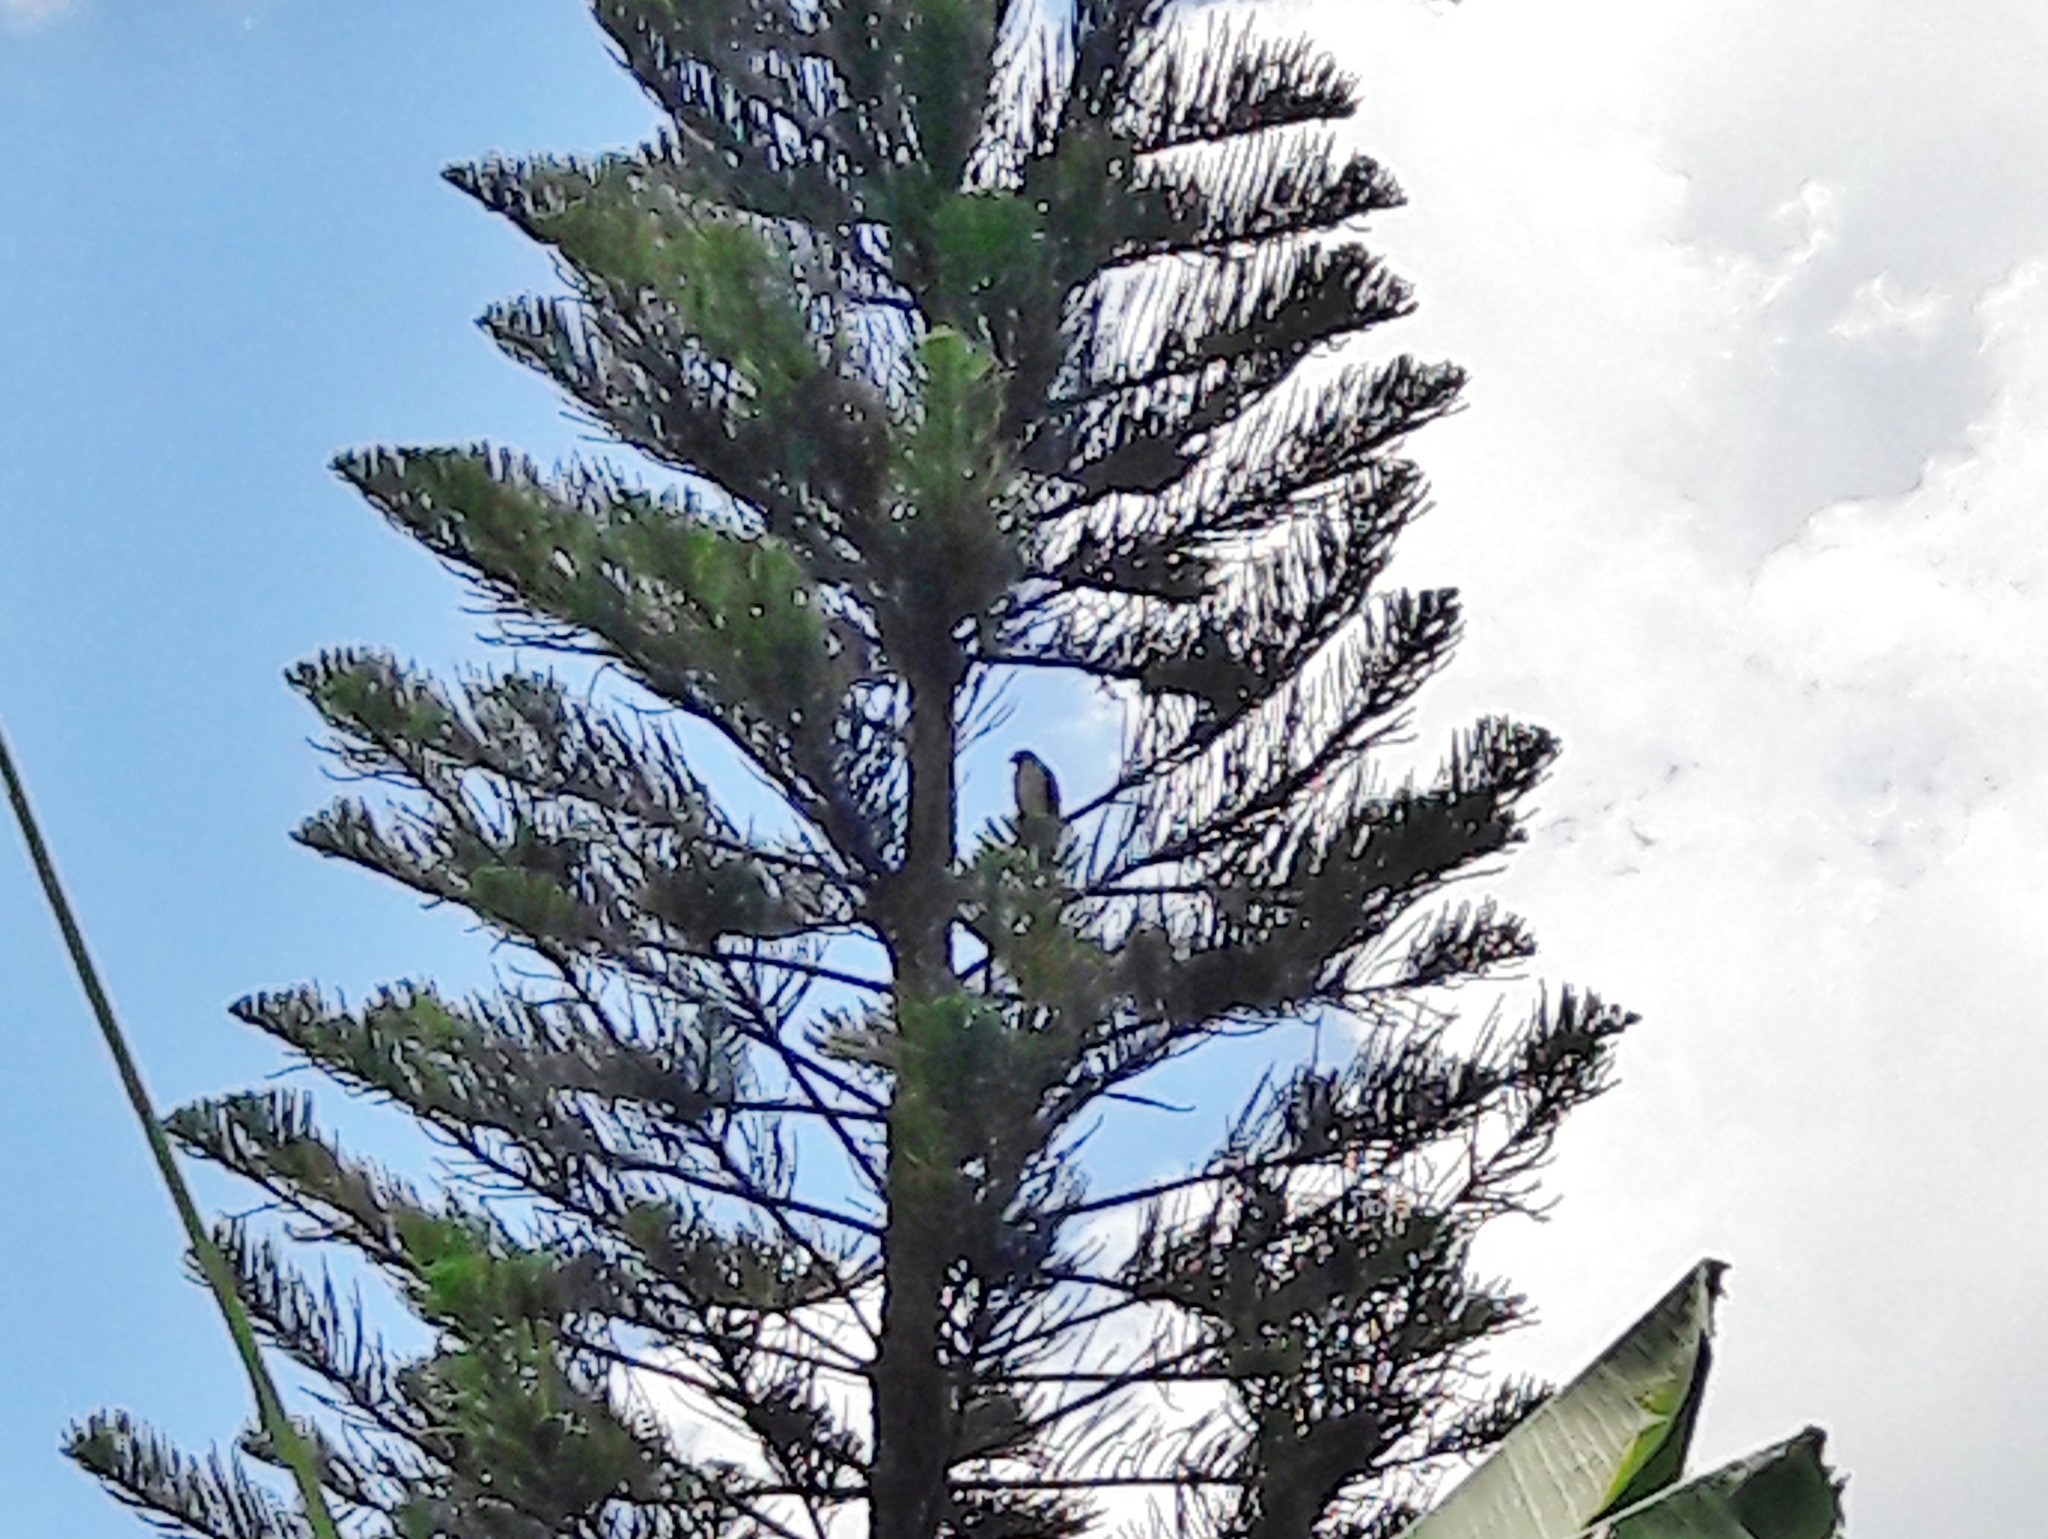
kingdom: Animalia
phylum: Chordata
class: Aves
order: Accipitriformes
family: Accipitridae
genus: Rupornis
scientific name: Rupornis magnirostris
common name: Roadside hawk
